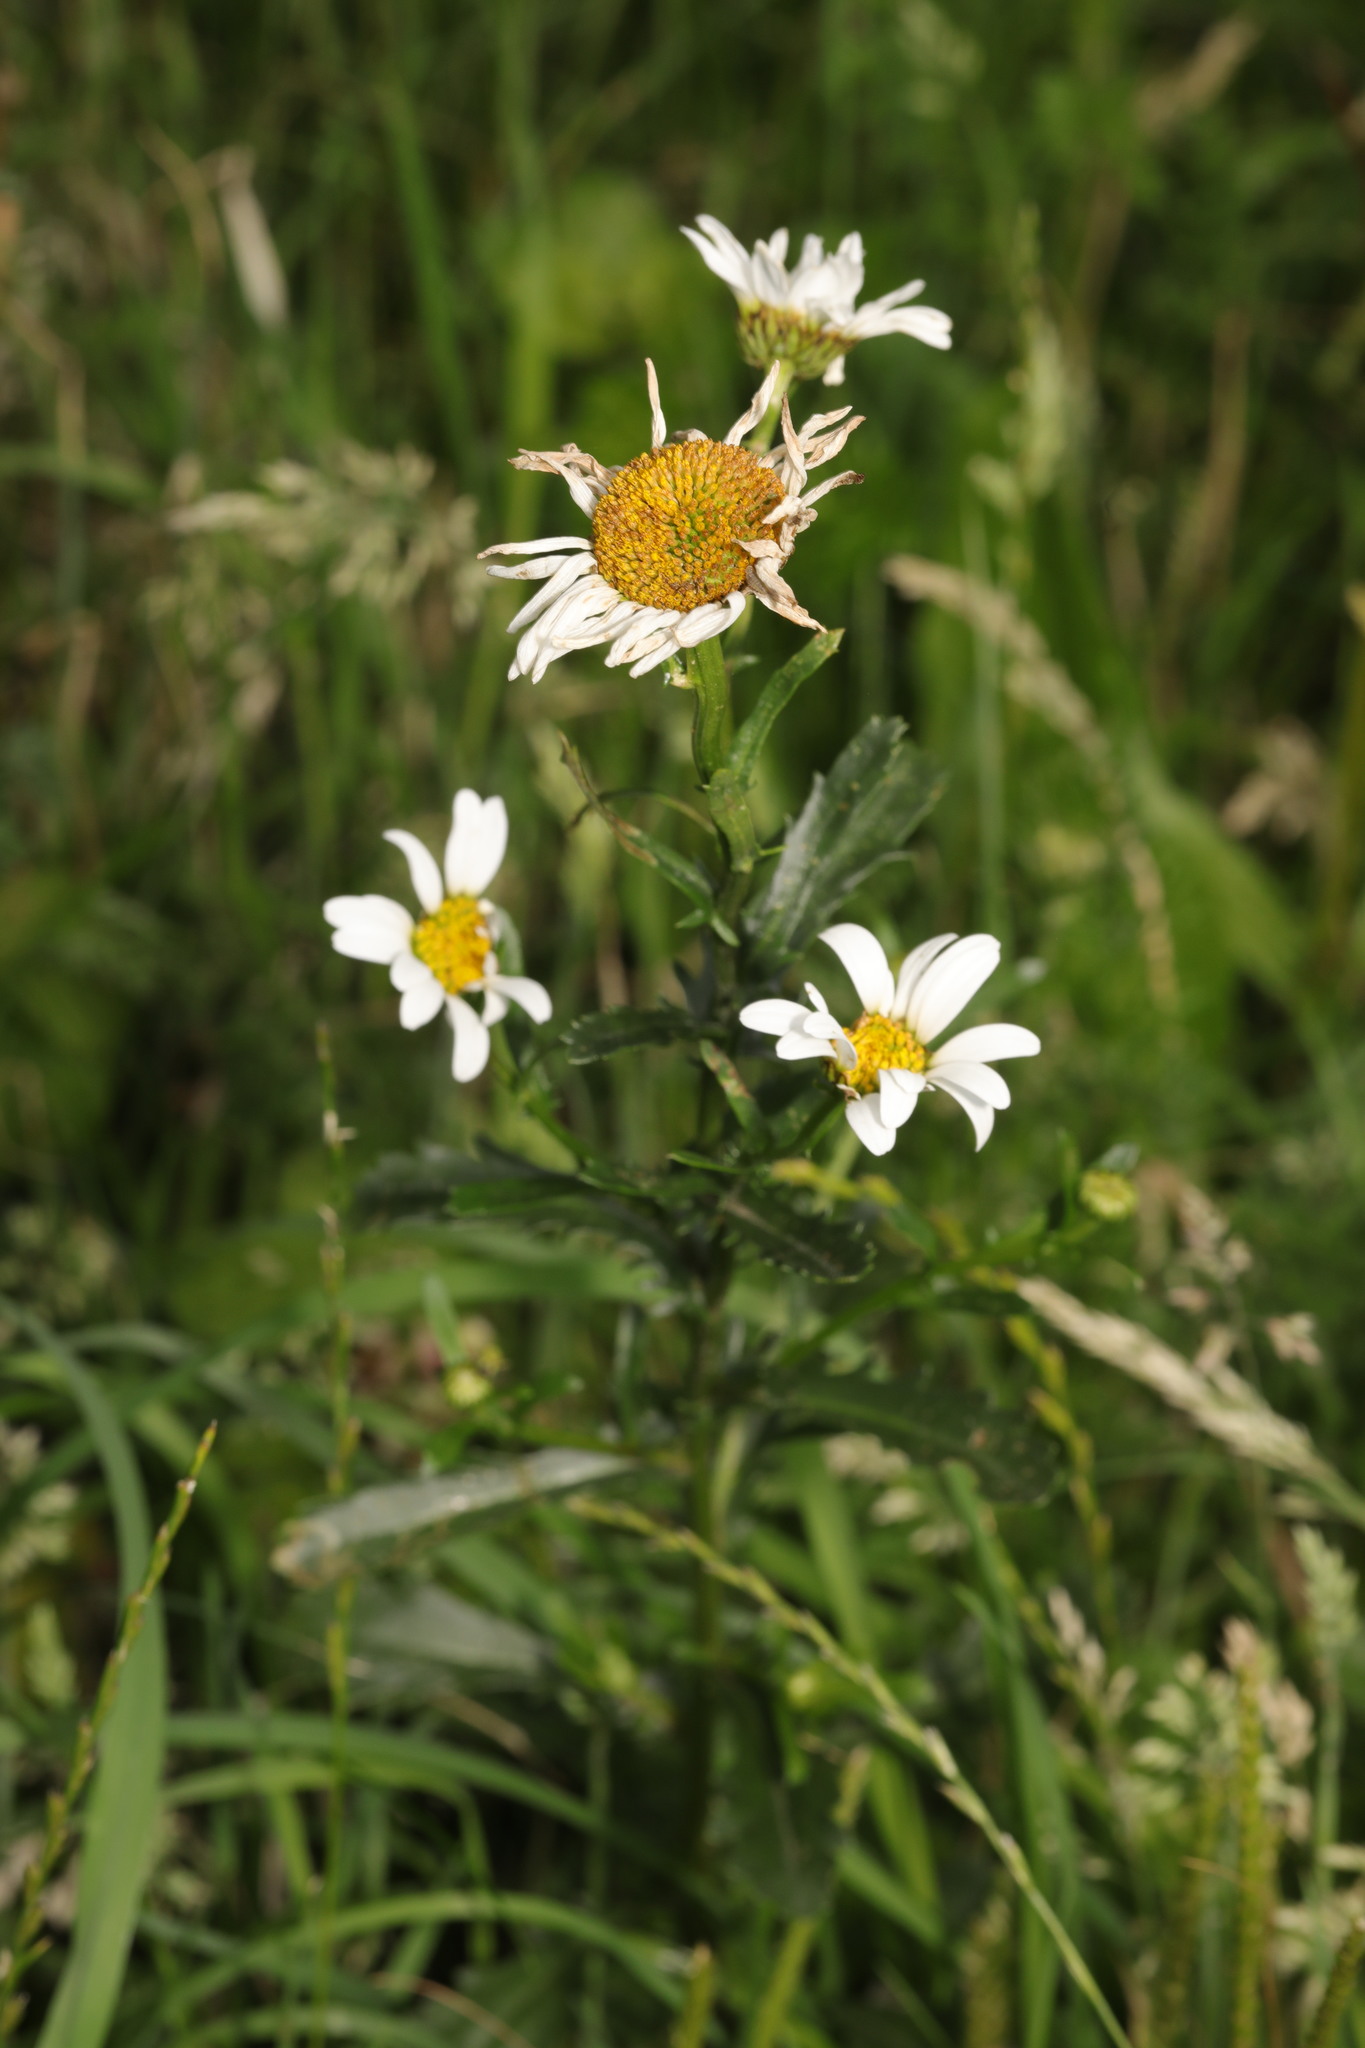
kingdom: Plantae
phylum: Tracheophyta
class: Magnoliopsida
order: Asterales
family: Asteraceae
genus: Leucanthemum
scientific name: Leucanthemum vulgare
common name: Oxeye daisy
